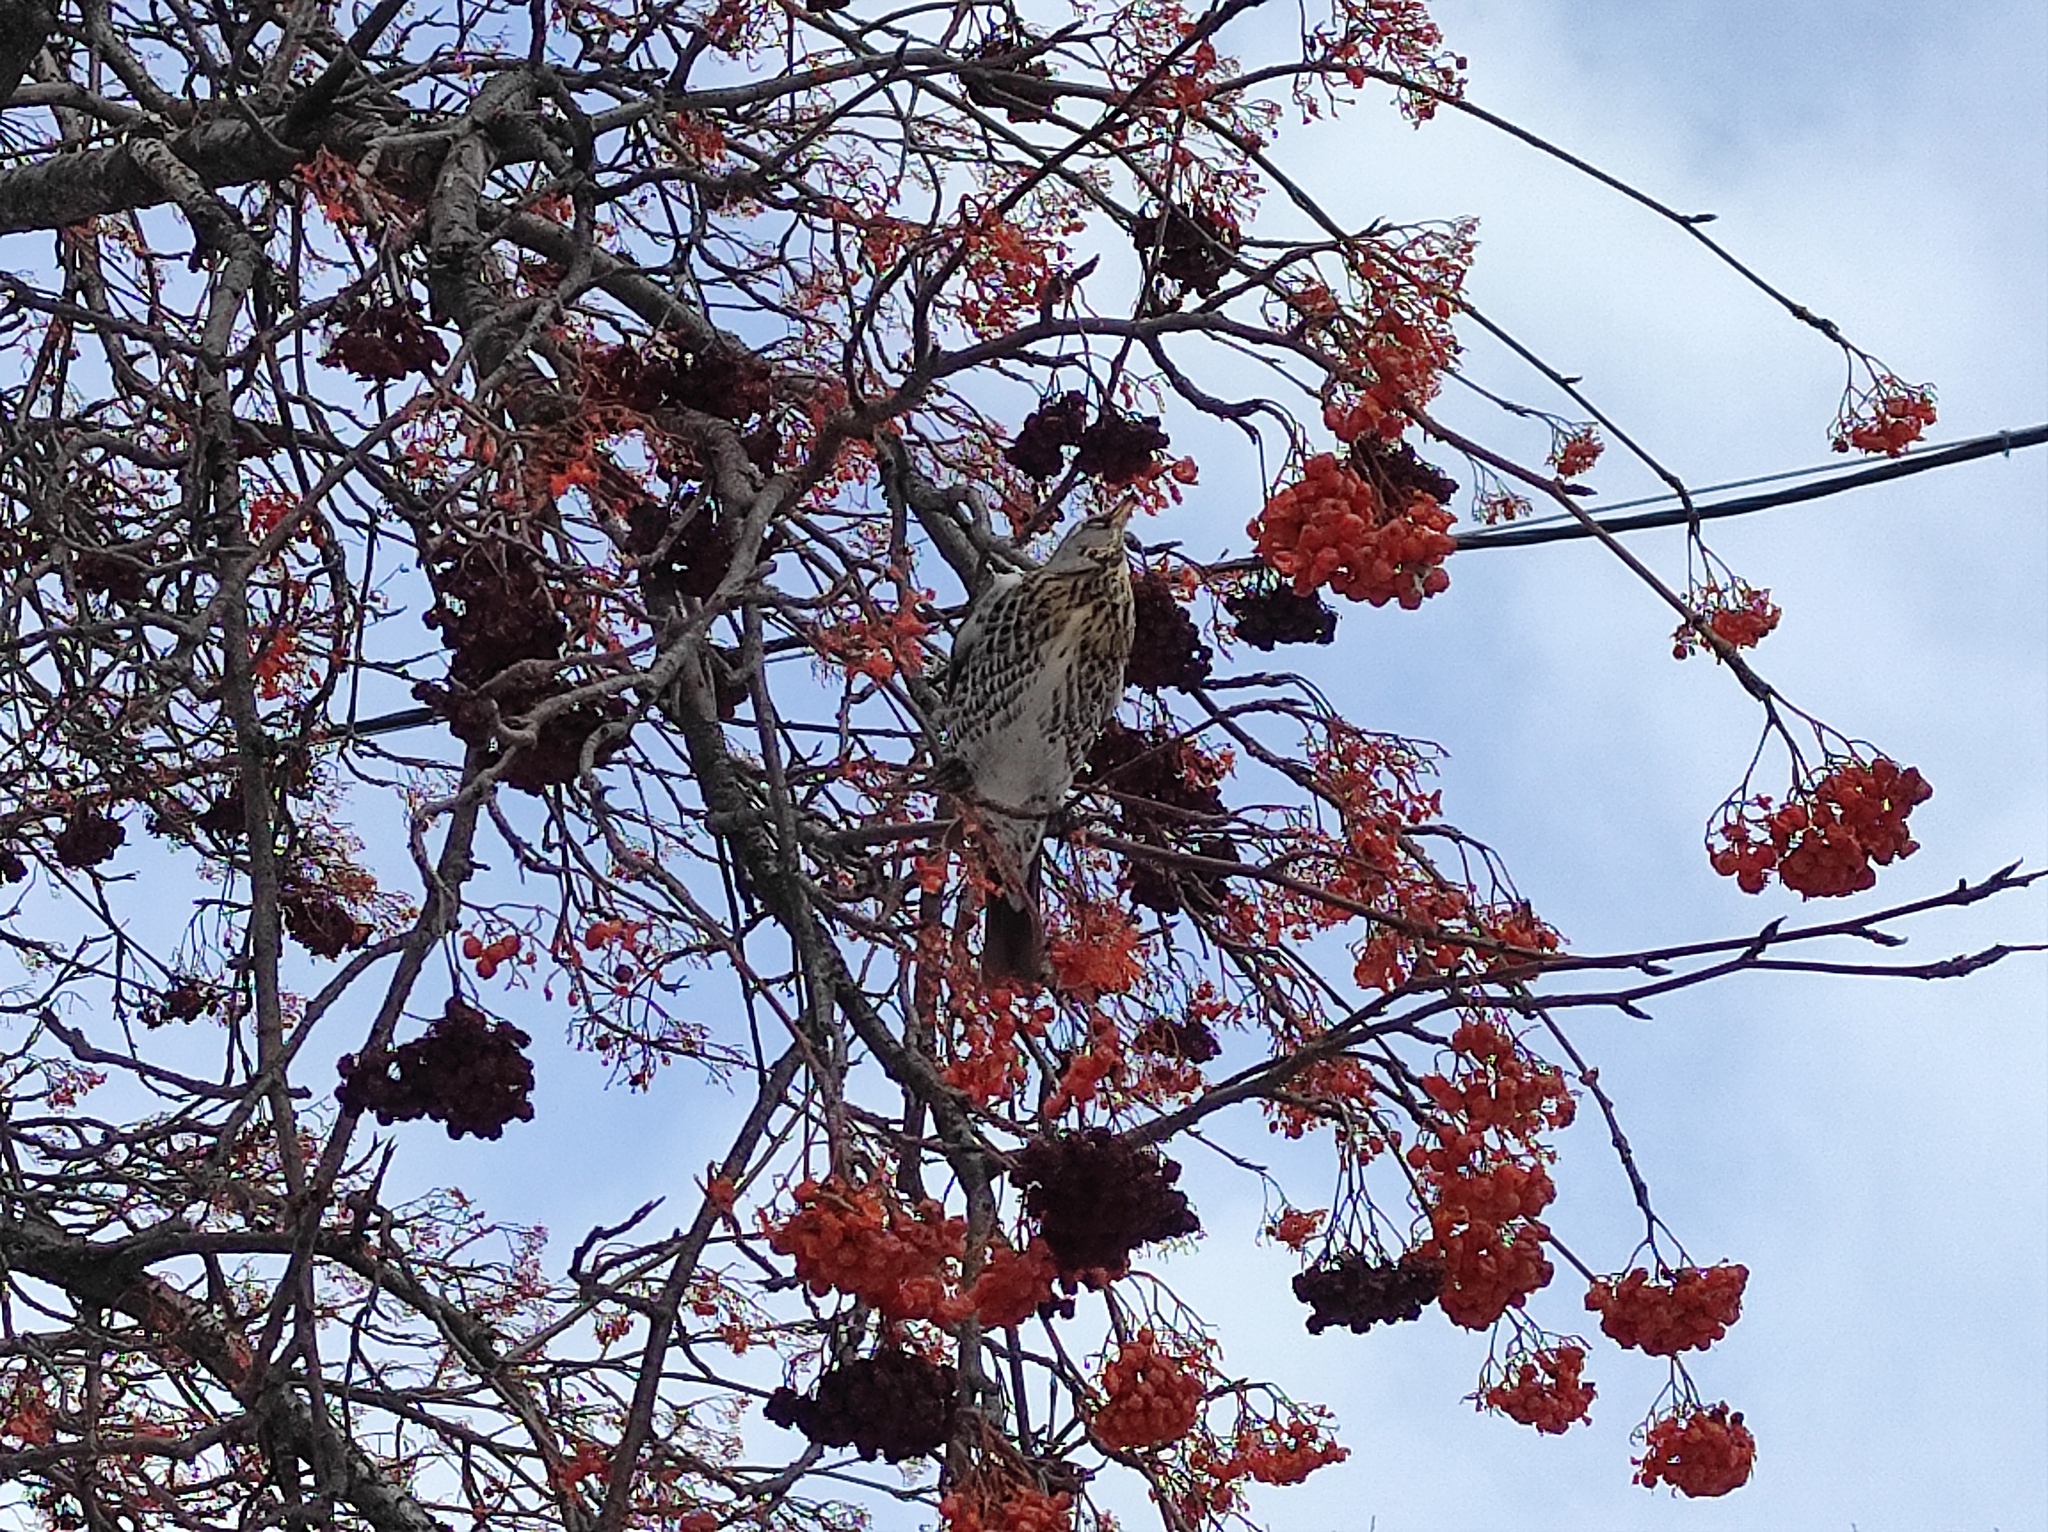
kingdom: Animalia
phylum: Chordata
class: Aves
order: Passeriformes
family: Turdidae
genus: Turdus
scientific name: Turdus pilaris
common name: Fieldfare
